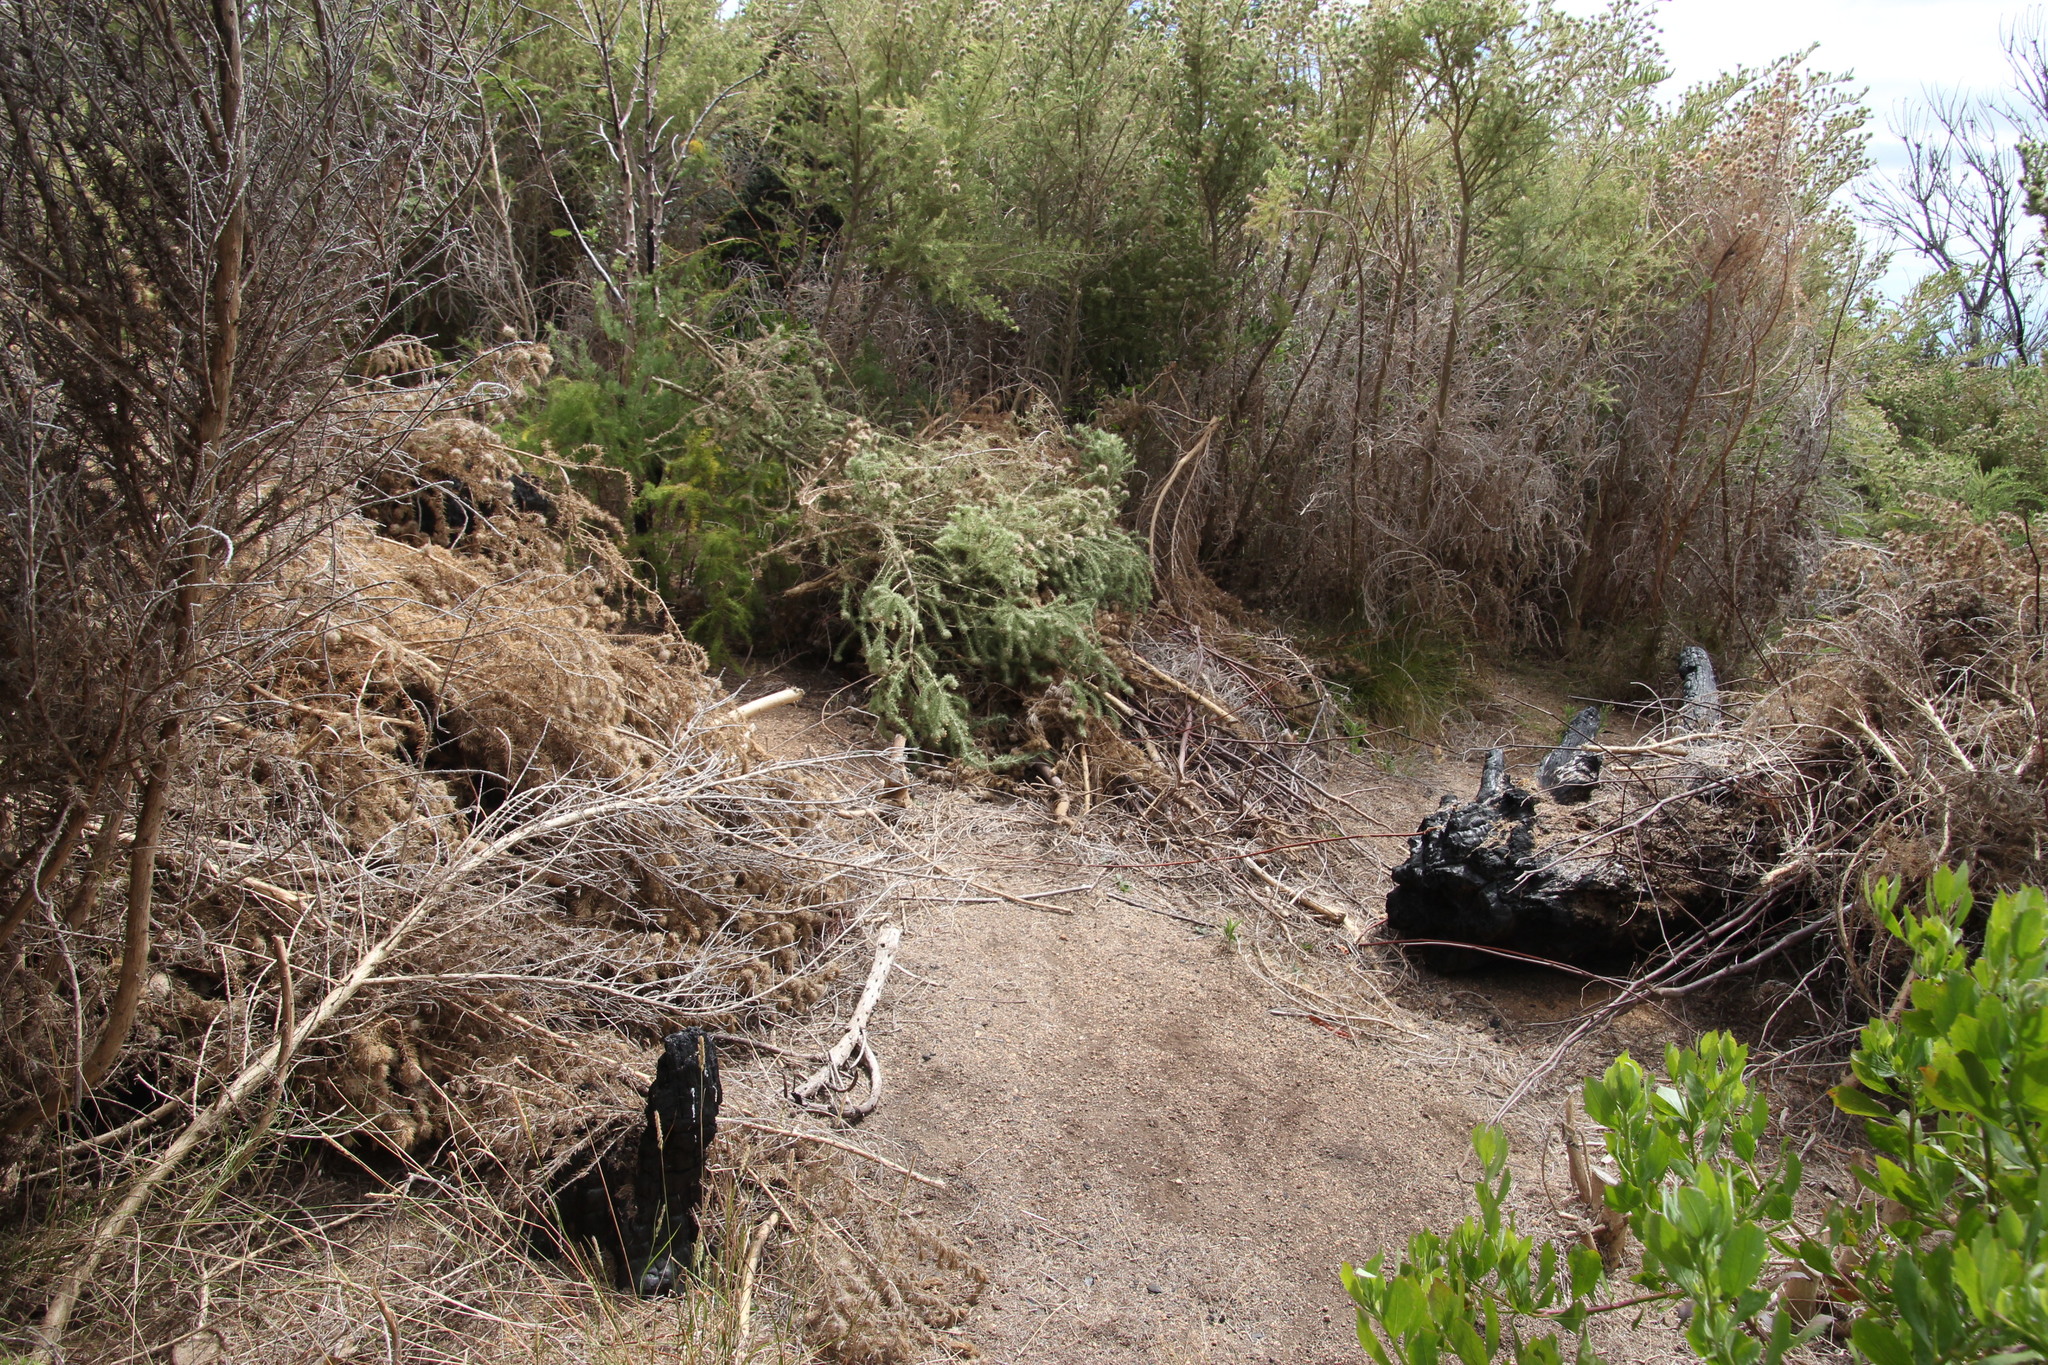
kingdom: Plantae
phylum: Tracheophyta
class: Magnoliopsida
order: Fabales
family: Fabaceae
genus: Aspalathus
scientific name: Aspalathus chenopoda
